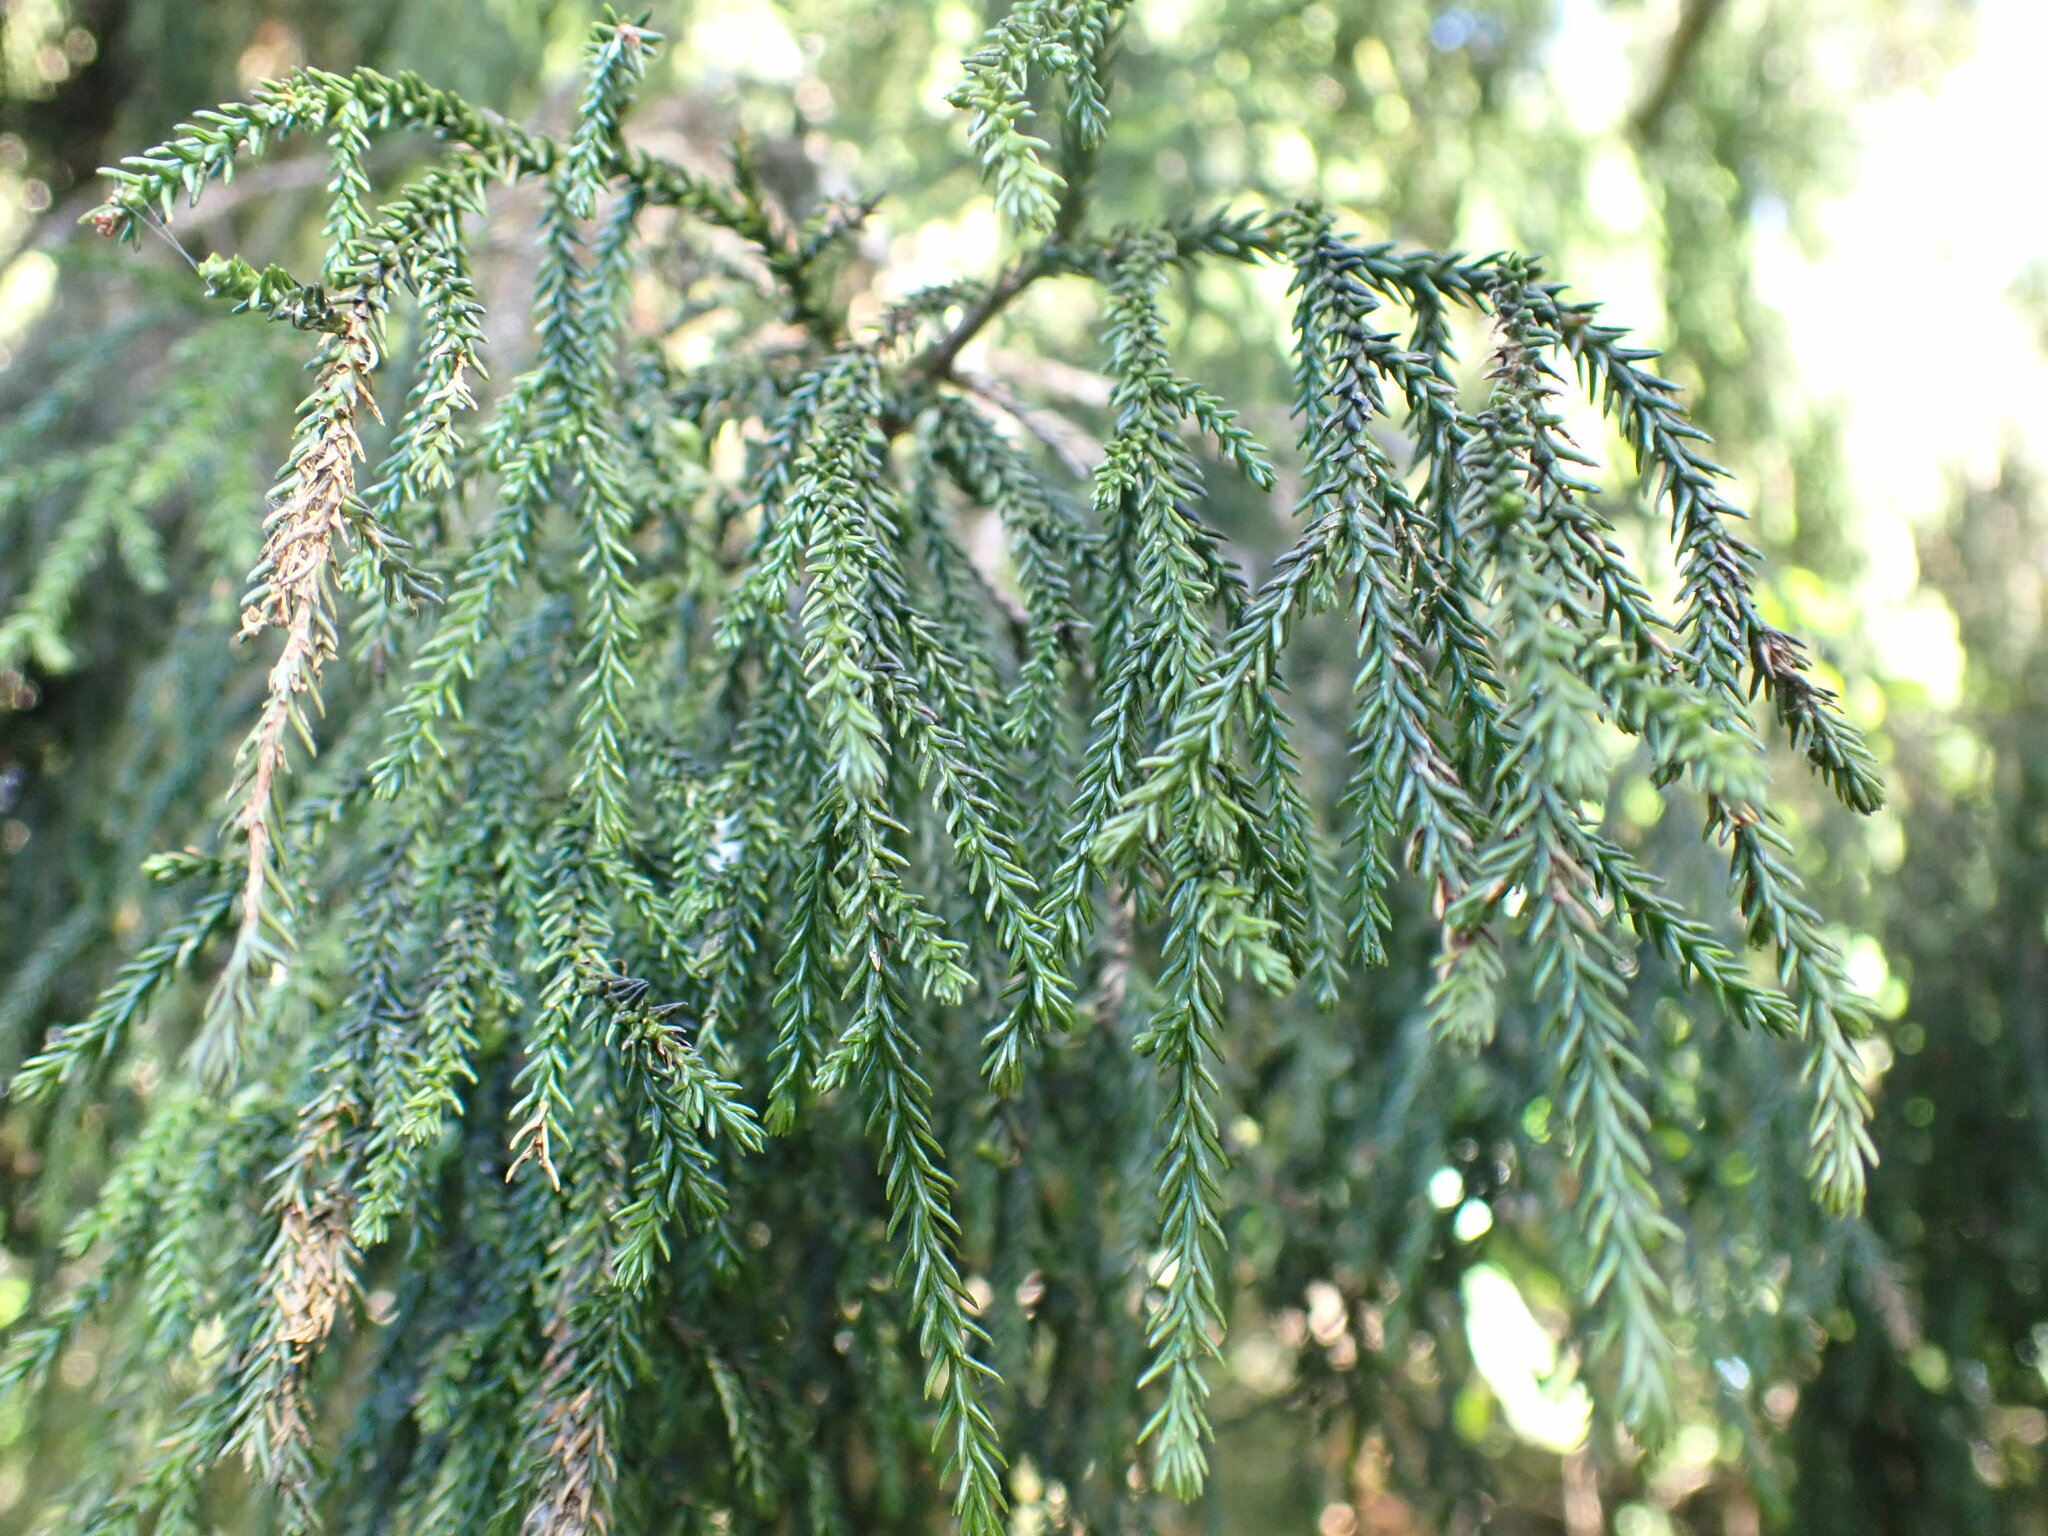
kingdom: Plantae
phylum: Tracheophyta
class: Pinopsida
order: Pinales
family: Podocarpaceae
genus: Dacrydium
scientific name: Dacrydium cupressinum
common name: Red pine
